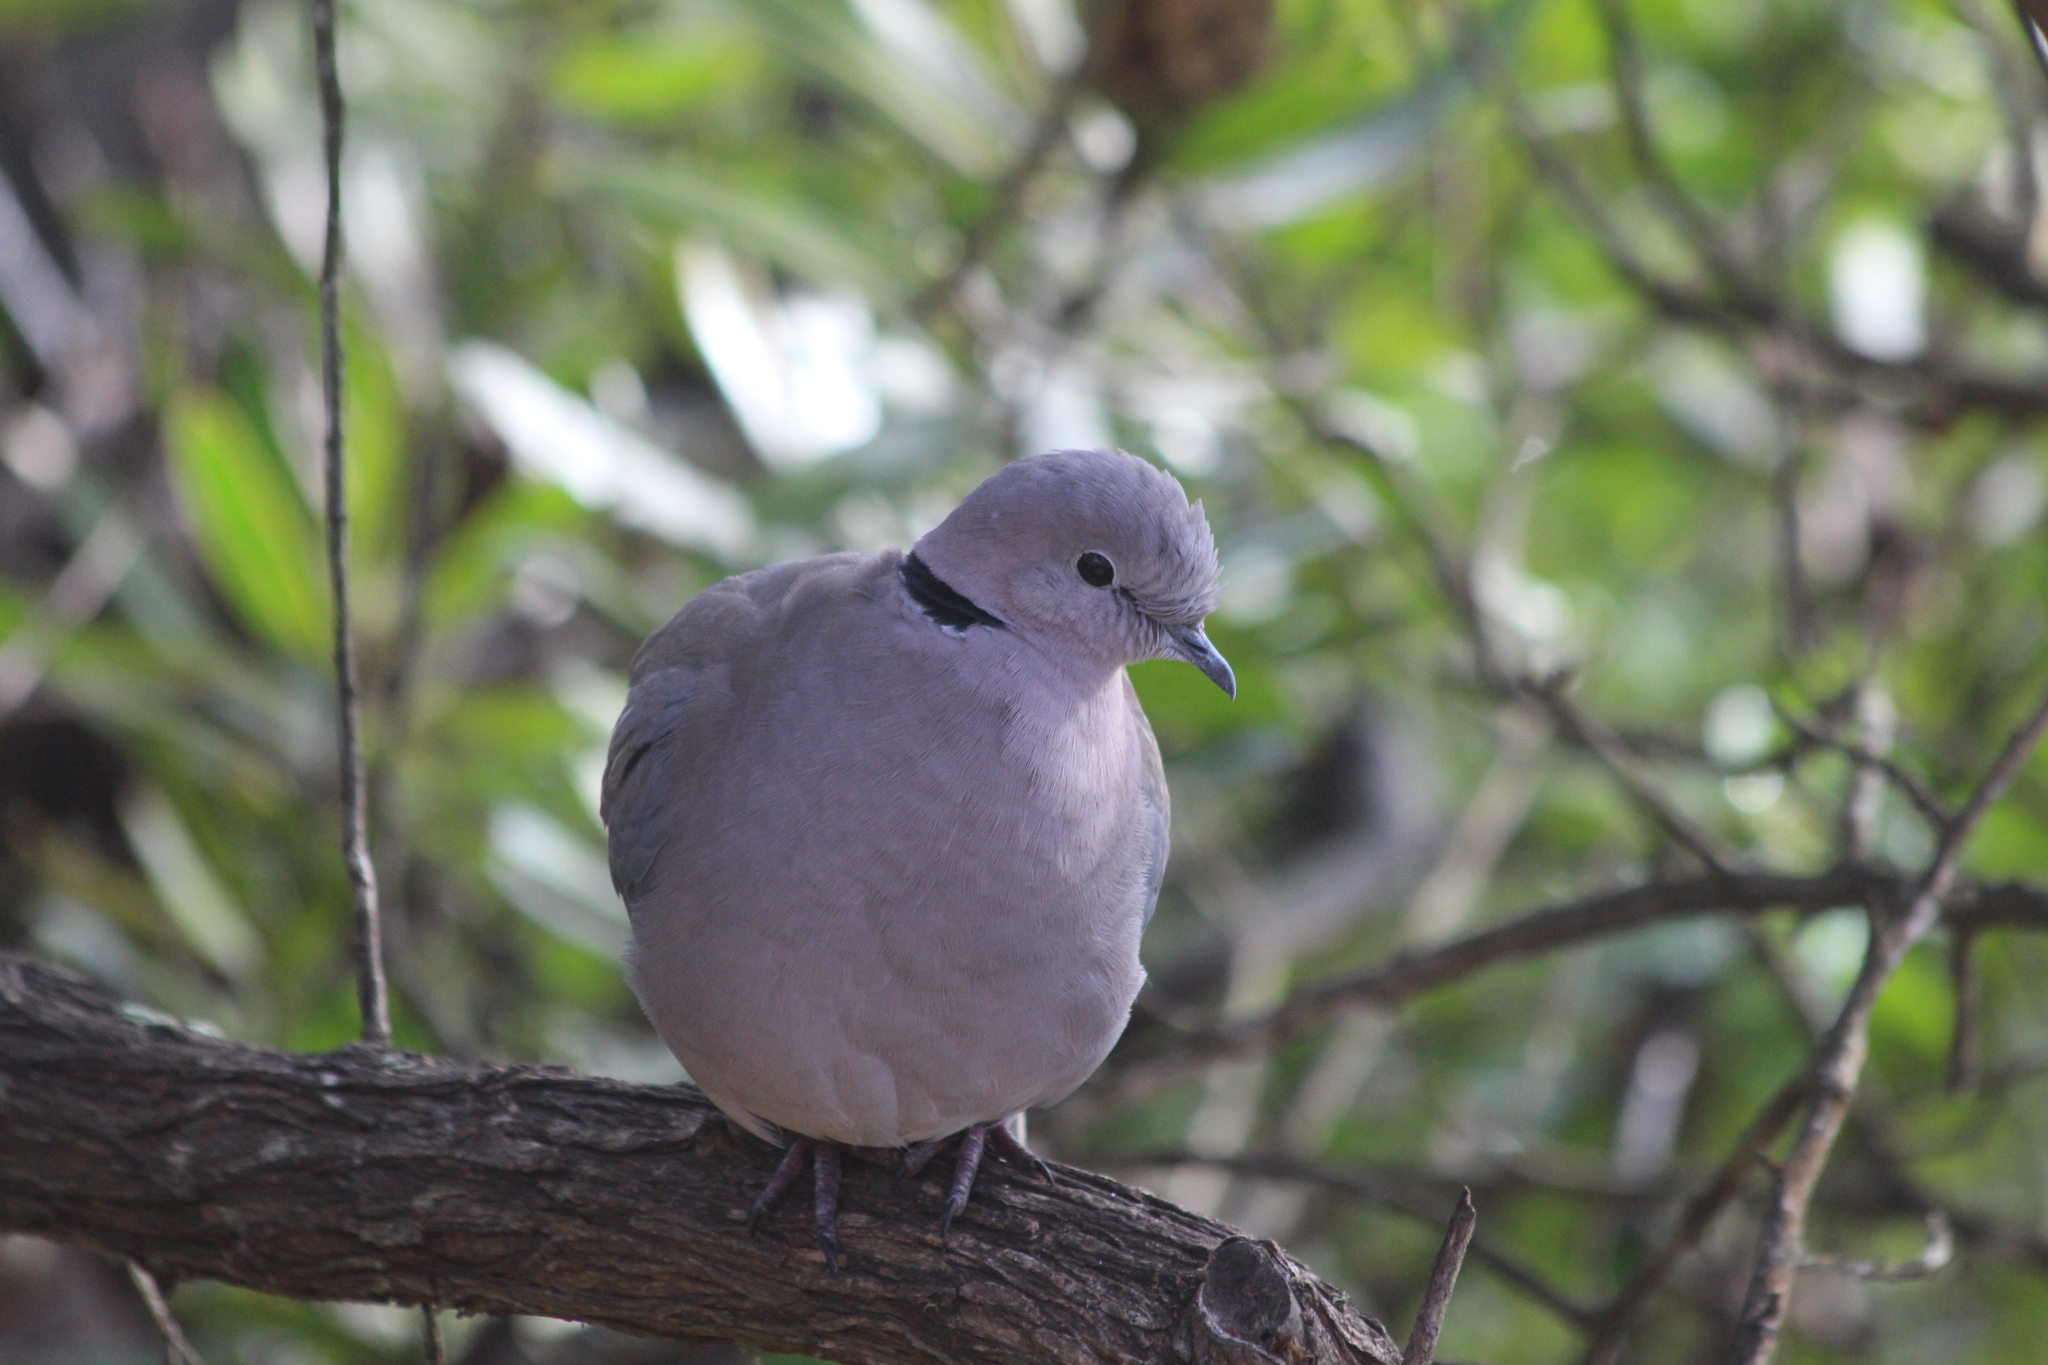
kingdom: Animalia
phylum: Chordata
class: Aves
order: Columbiformes
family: Columbidae
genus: Streptopelia
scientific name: Streptopelia capicola
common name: Ring-necked dove
